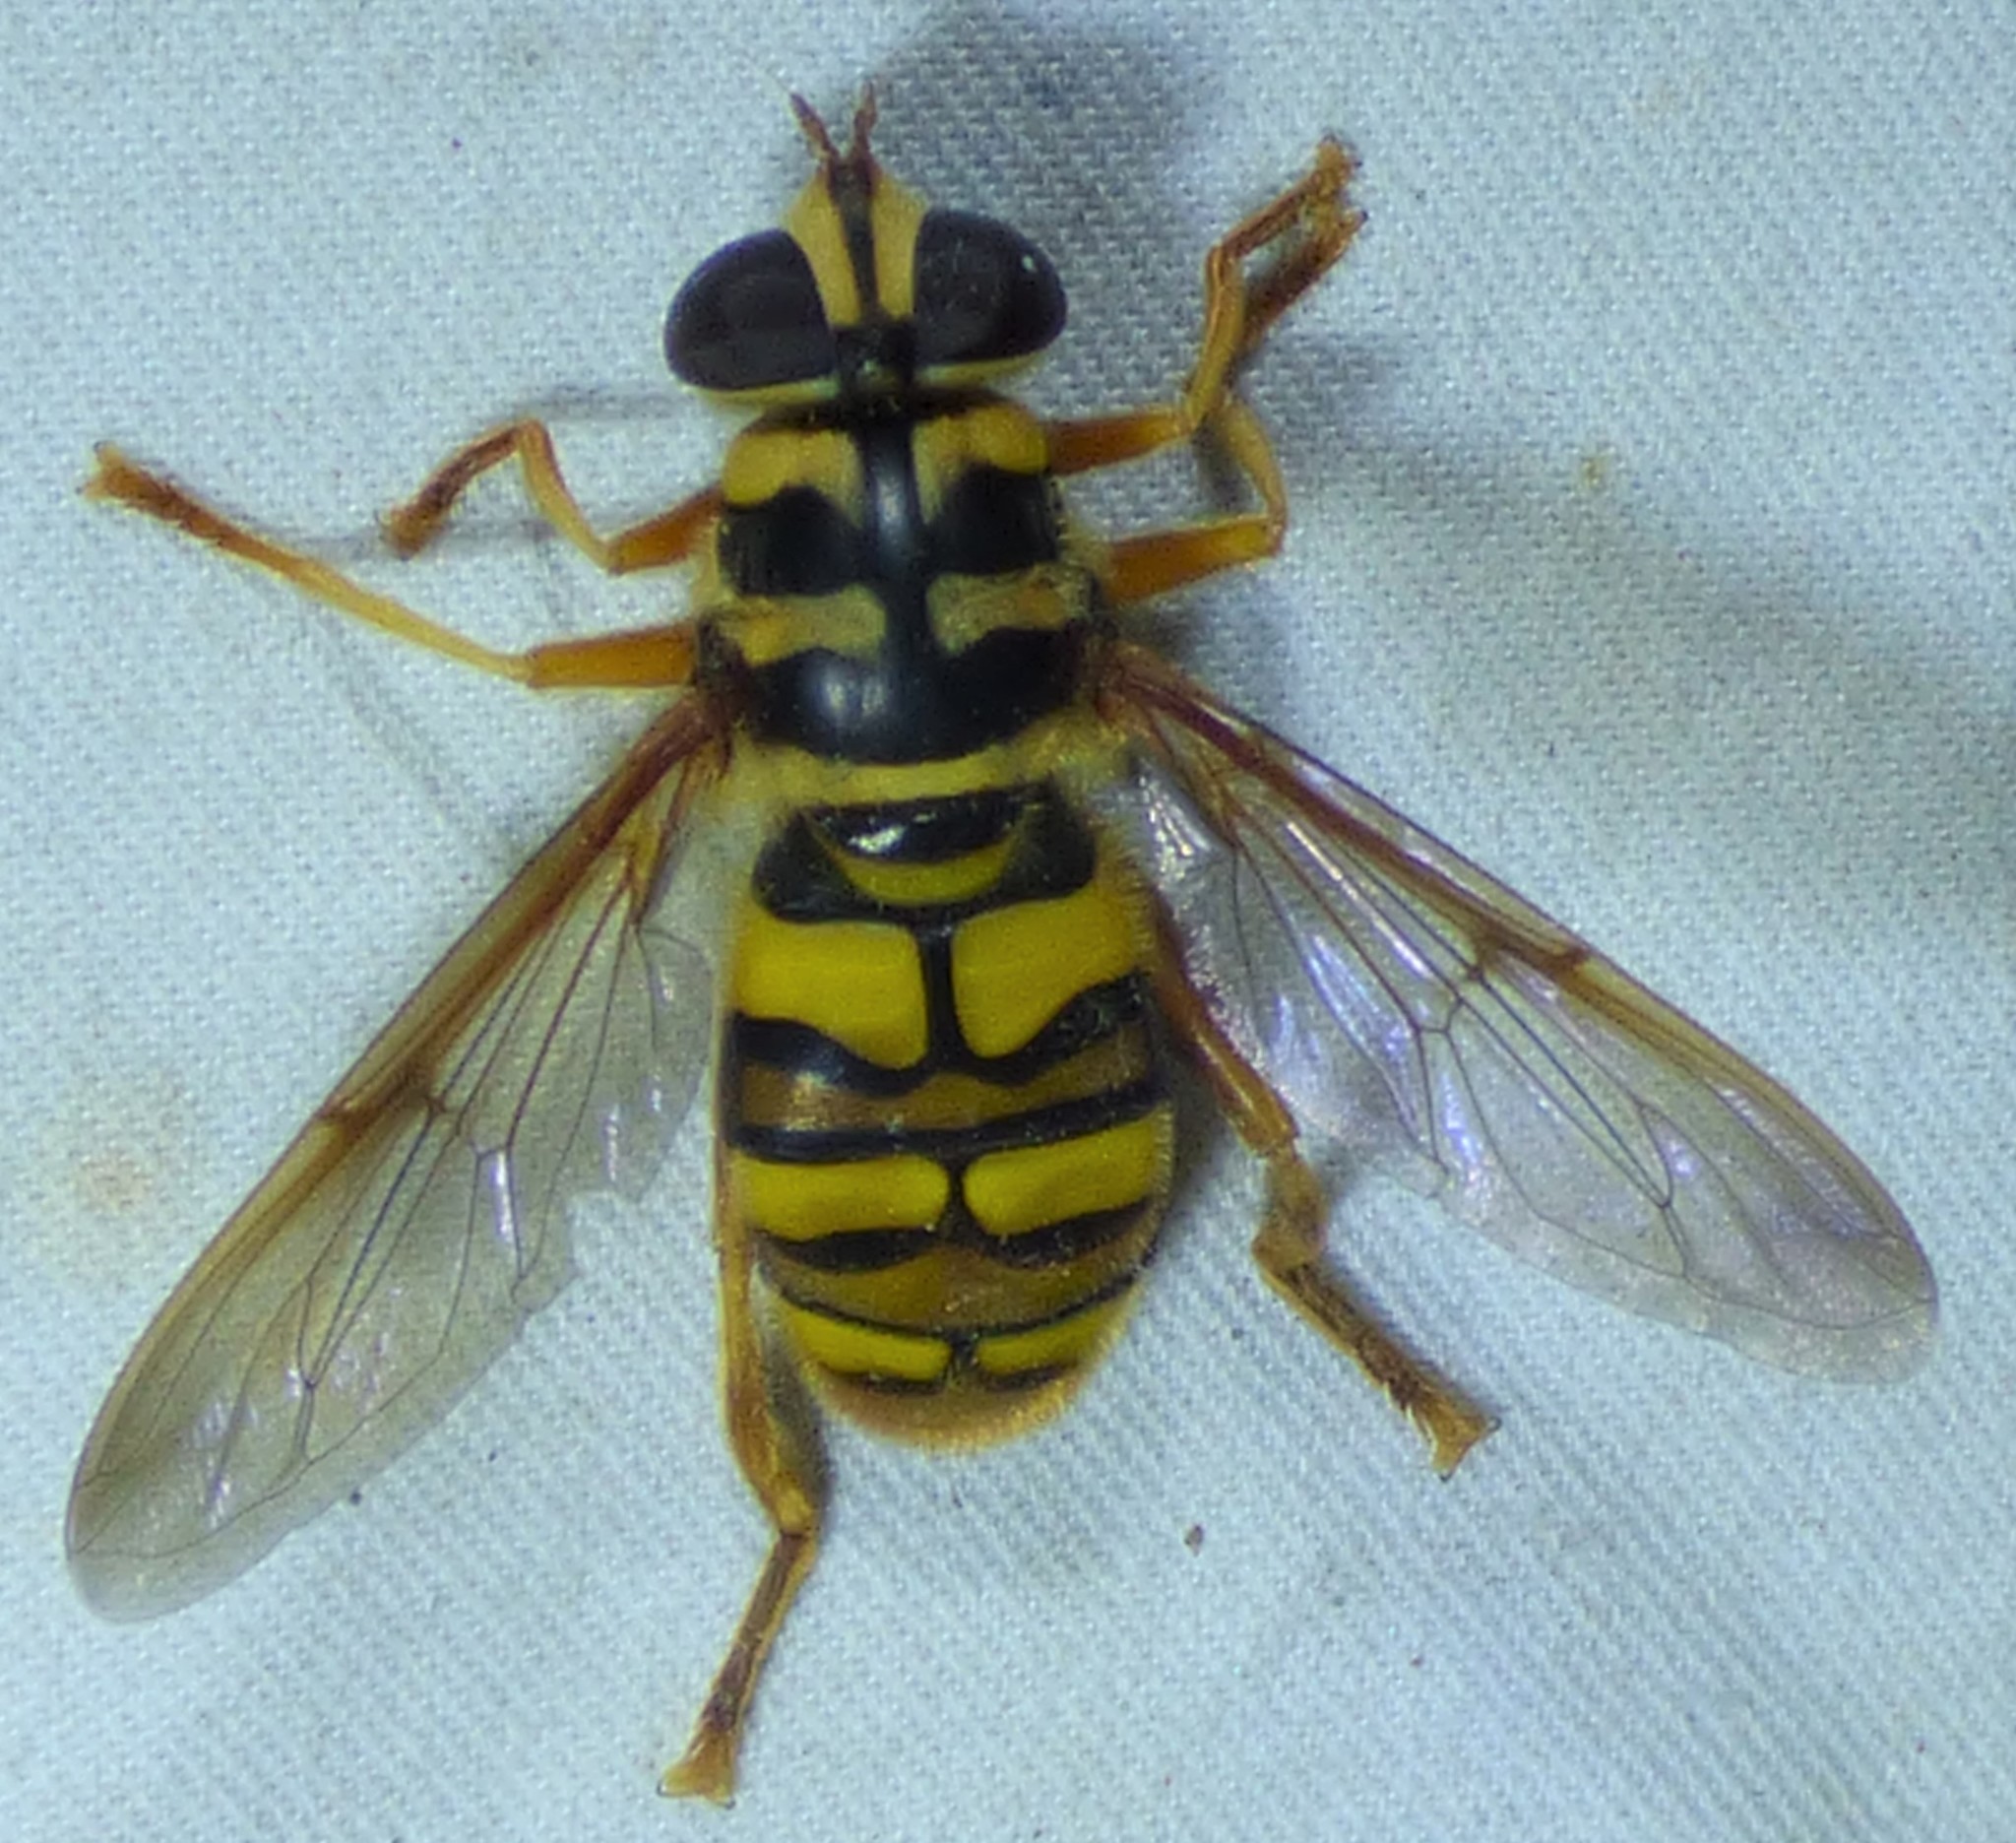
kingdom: Animalia
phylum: Arthropoda
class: Insecta
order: Diptera
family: Syrphidae
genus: Milesia
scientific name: Milesia virginiensis
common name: Virginia giant
